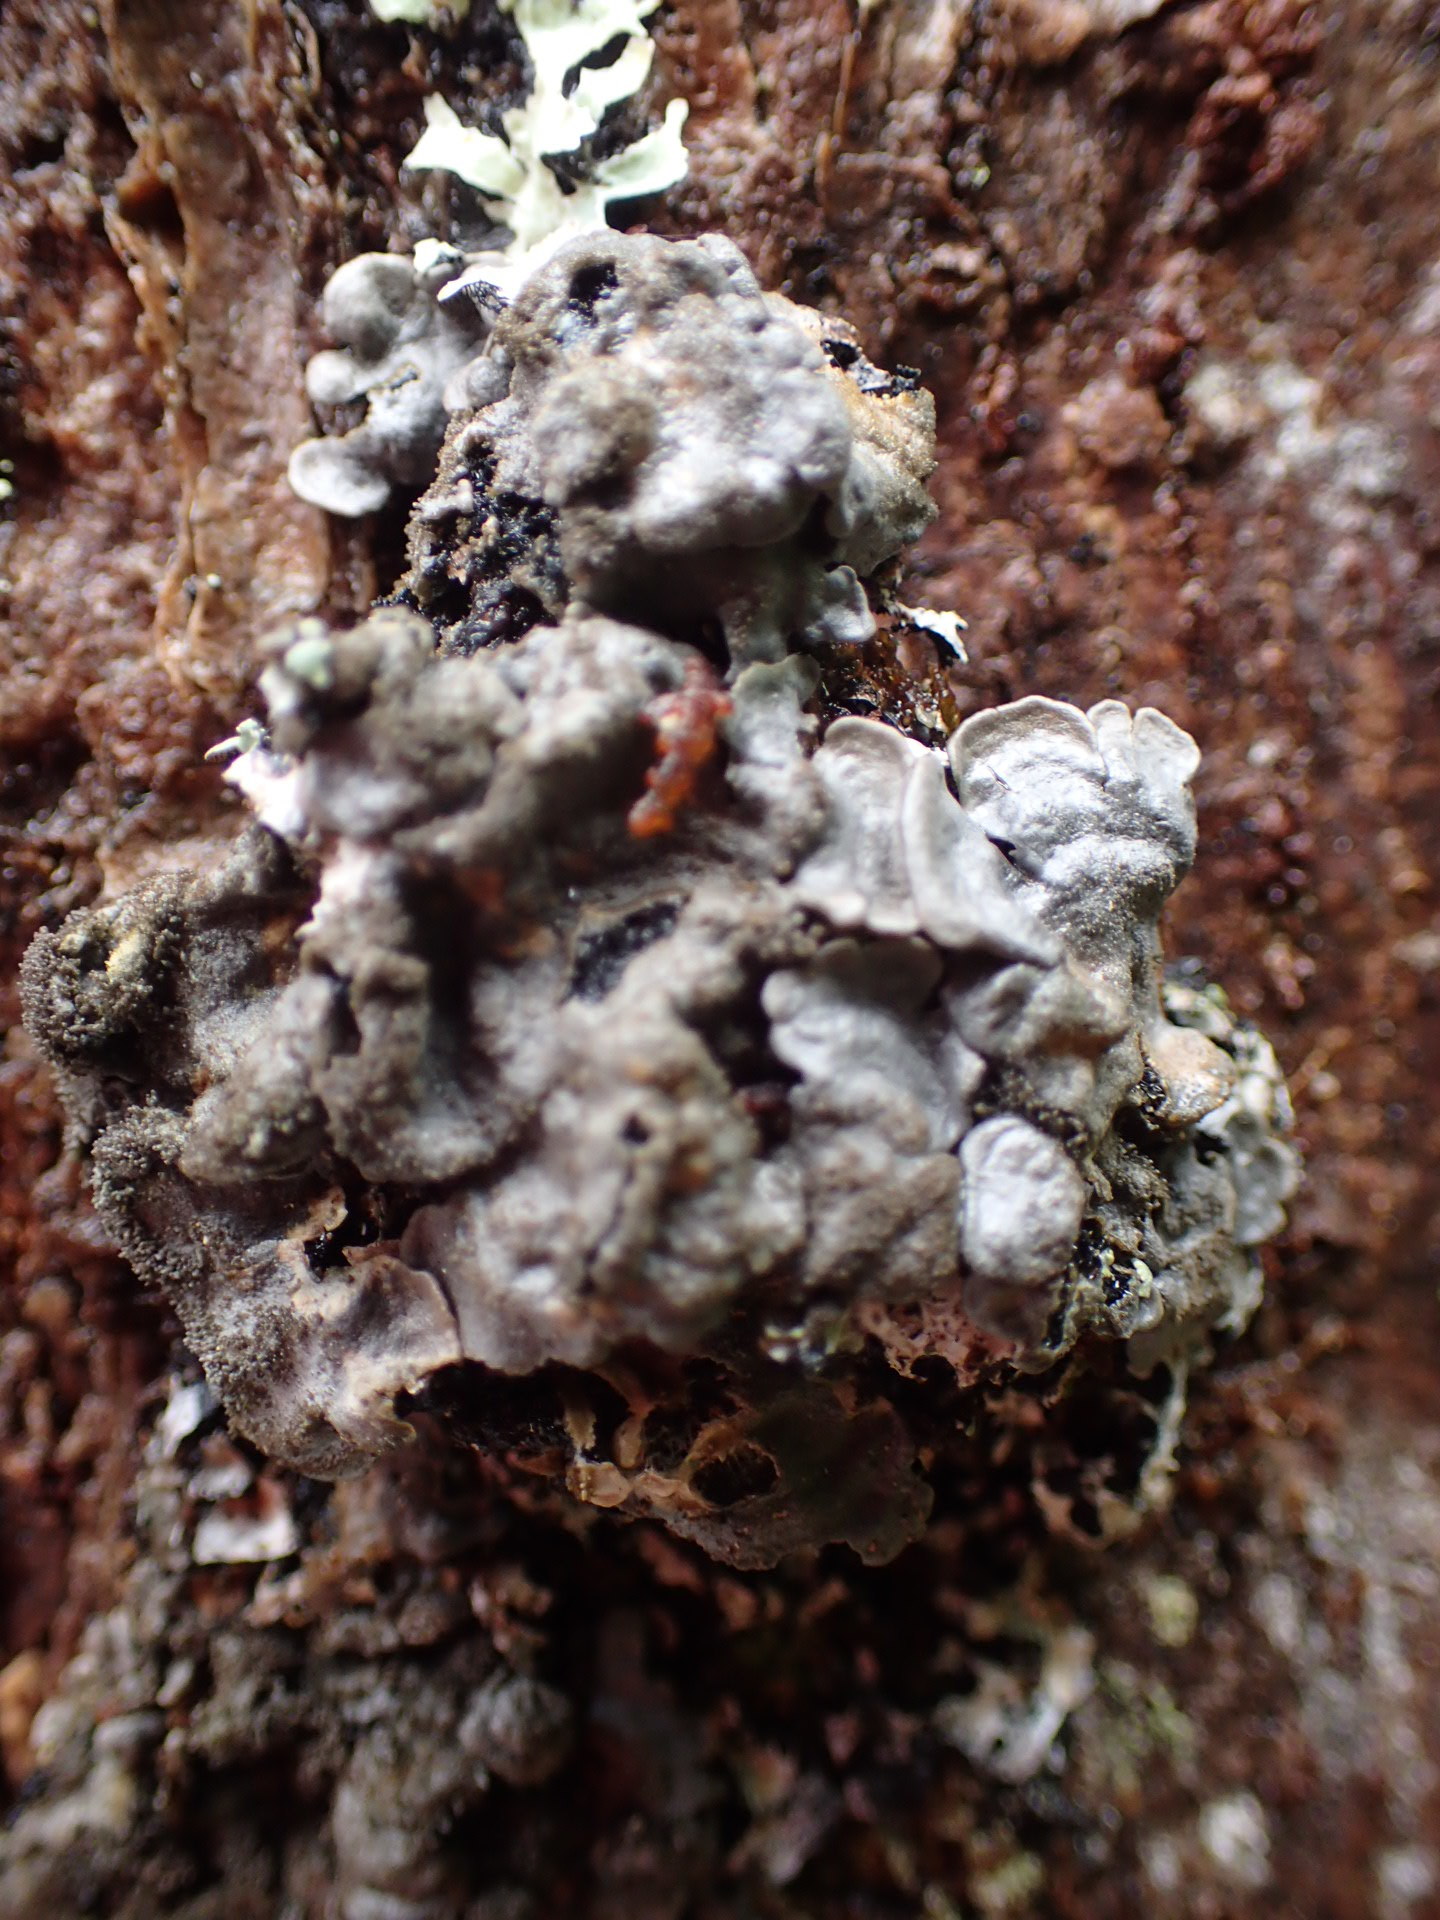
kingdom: Fungi
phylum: Ascomycota
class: Lecanoromycetes
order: Peltigerales
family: Coccocarpiaceae
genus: Coccocarpia
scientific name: Coccocarpia palmicola
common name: Salted shell lichen
